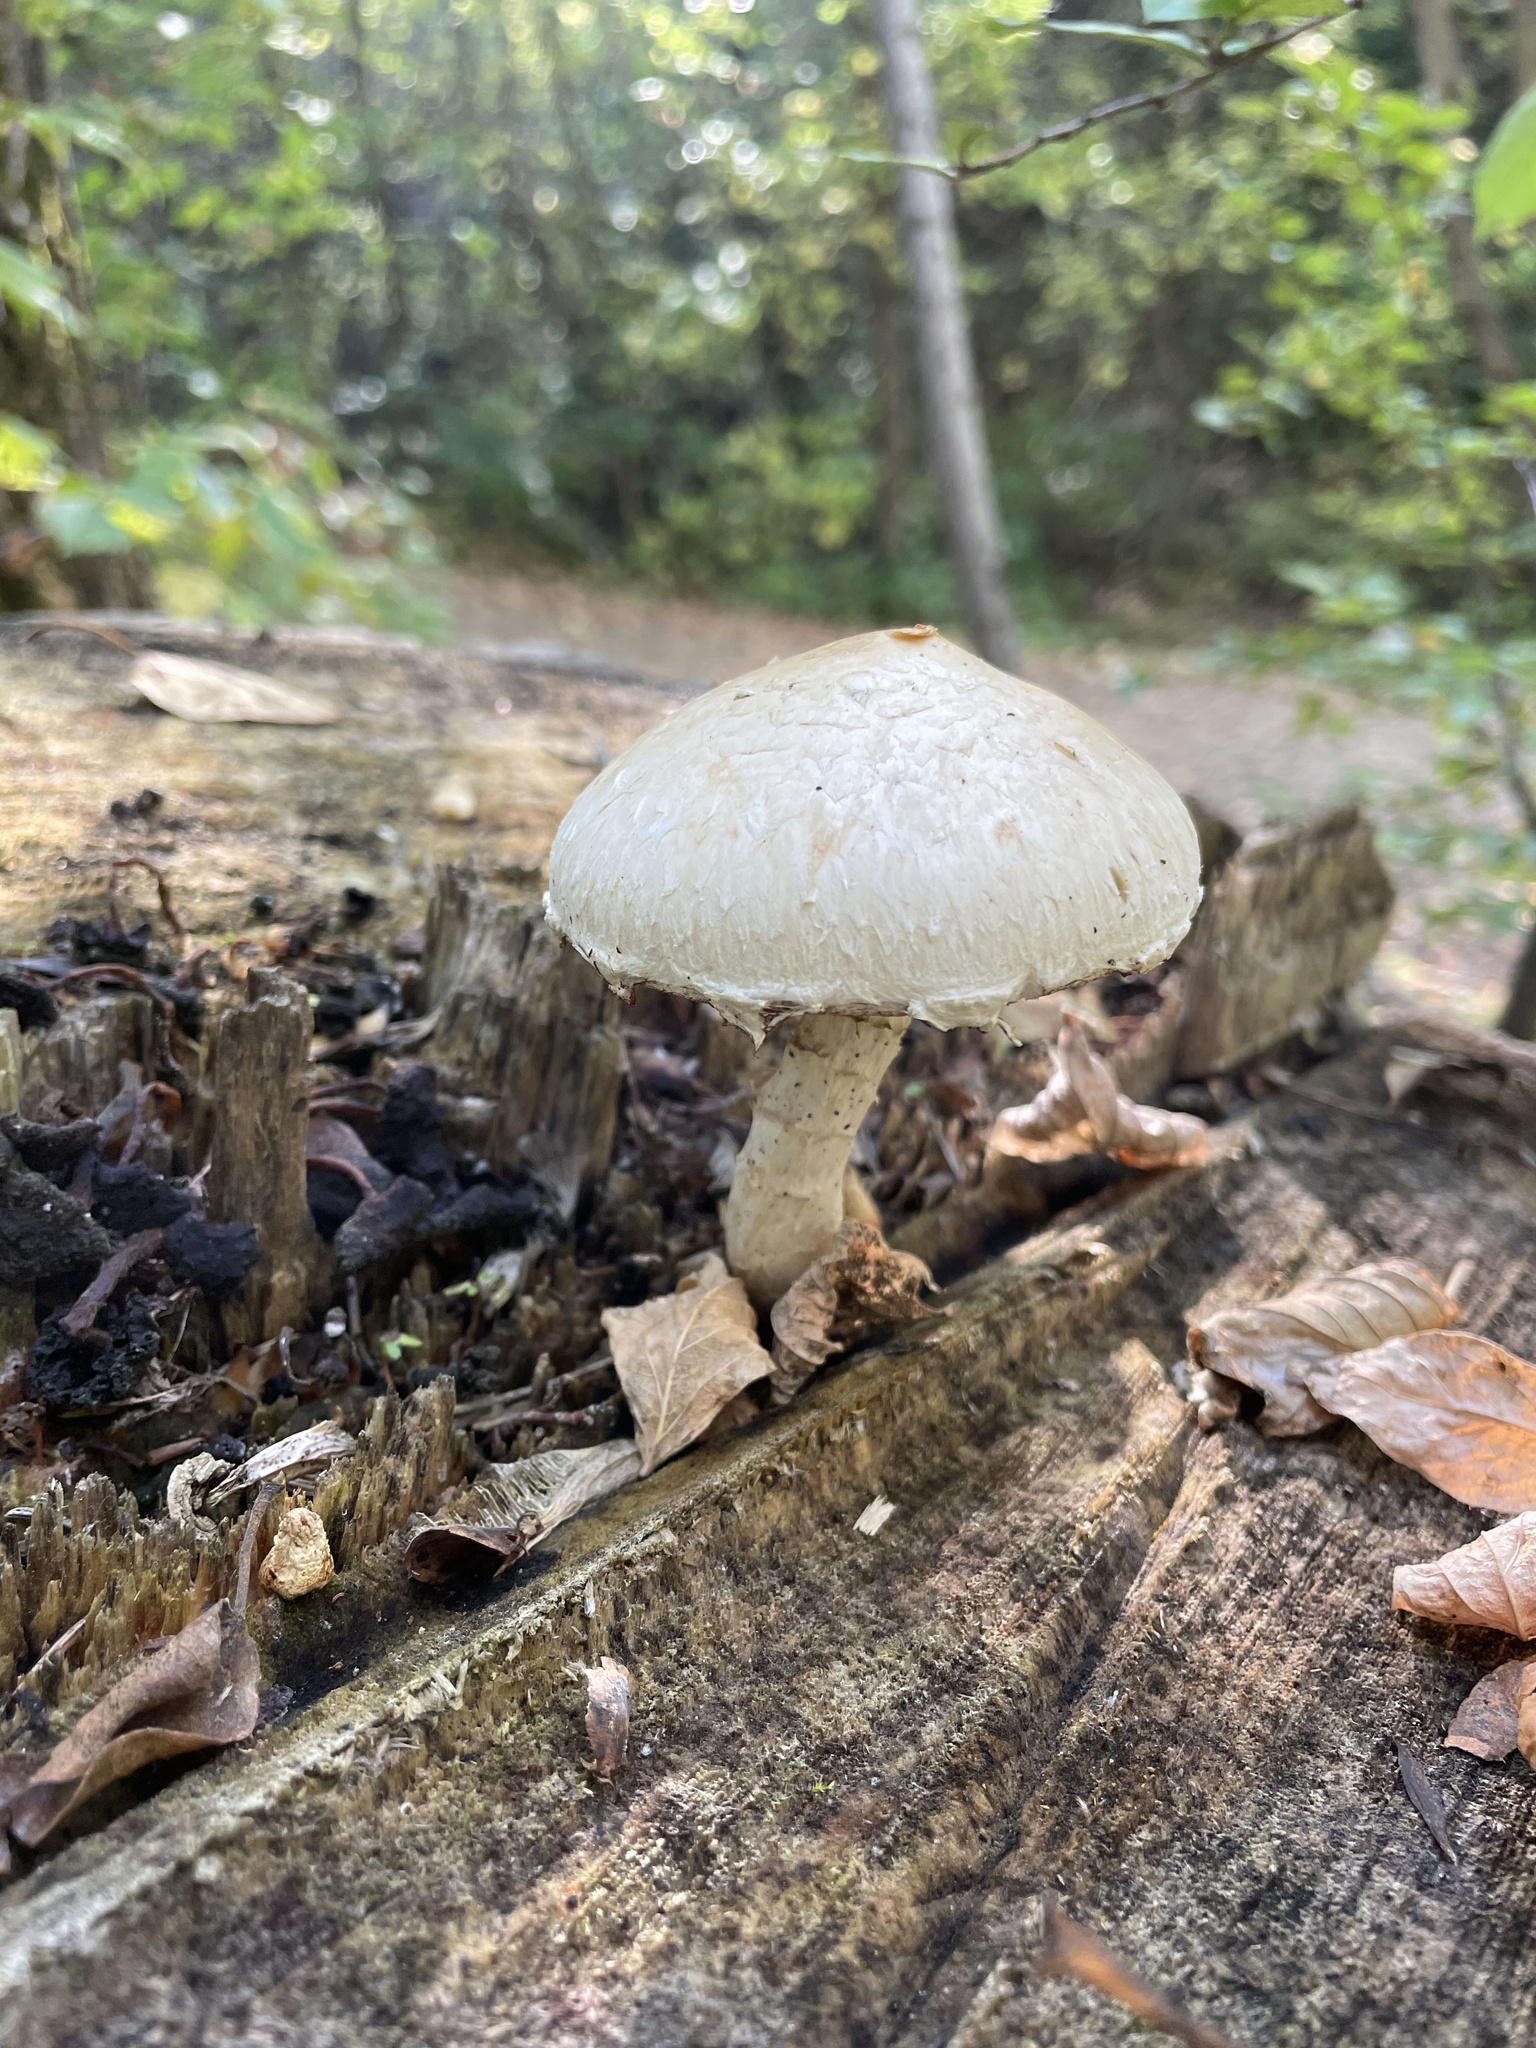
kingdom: Fungi
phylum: Basidiomycota
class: Agaricomycetes
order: Agaricales
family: Strophariaceae
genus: Pholiota
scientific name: Pholiota populnea
